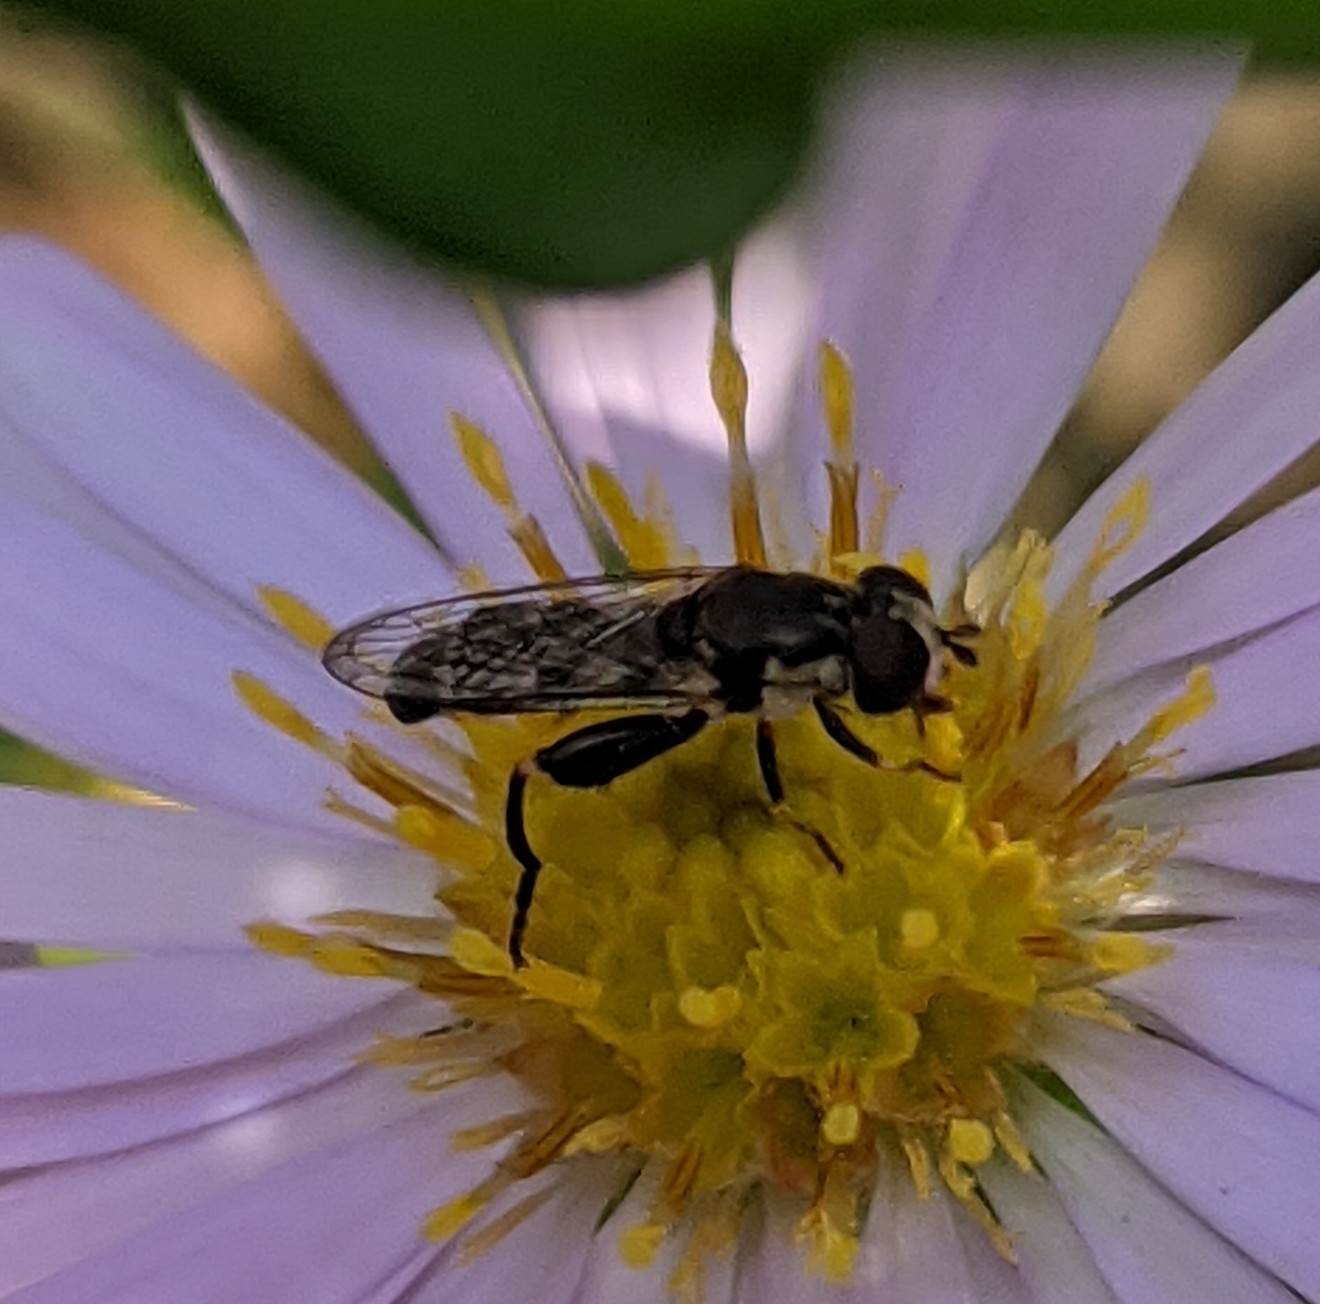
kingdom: Animalia
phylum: Arthropoda
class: Insecta
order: Diptera
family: Syrphidae
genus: Syritta
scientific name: Syritta pipiens
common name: Hover fly
